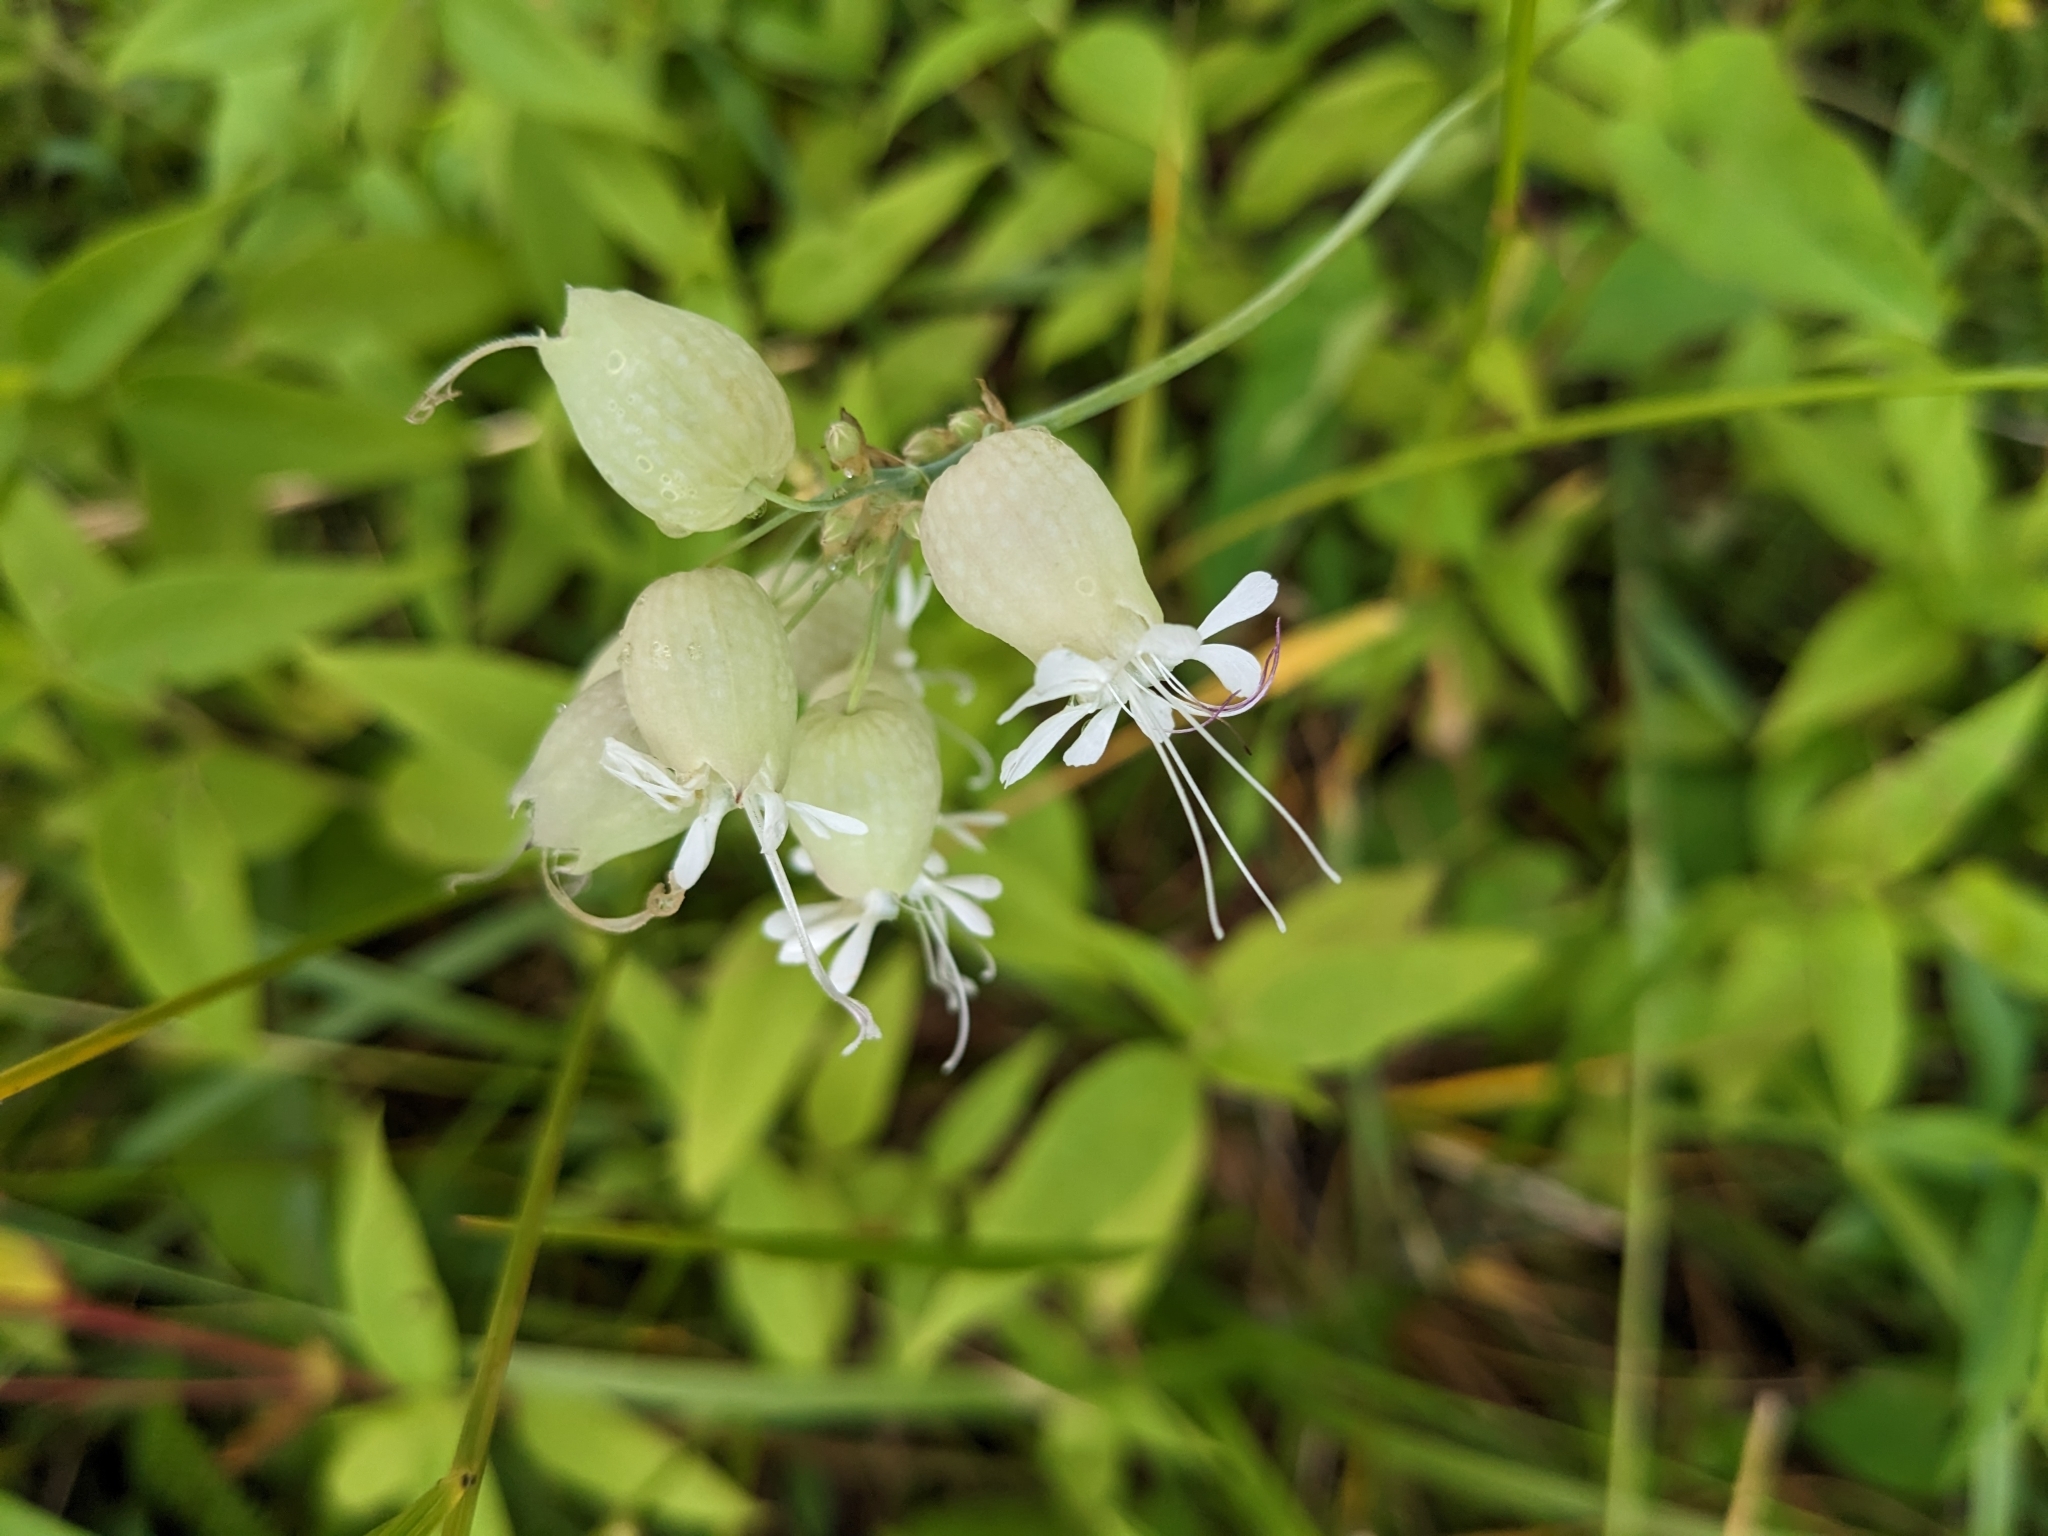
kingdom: Plantae
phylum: Tracheophyta
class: Magnoliopsida
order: Caryophyllales
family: Caryophyllaceae
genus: Silene
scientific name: Silene vulgaris
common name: Bladder campion
